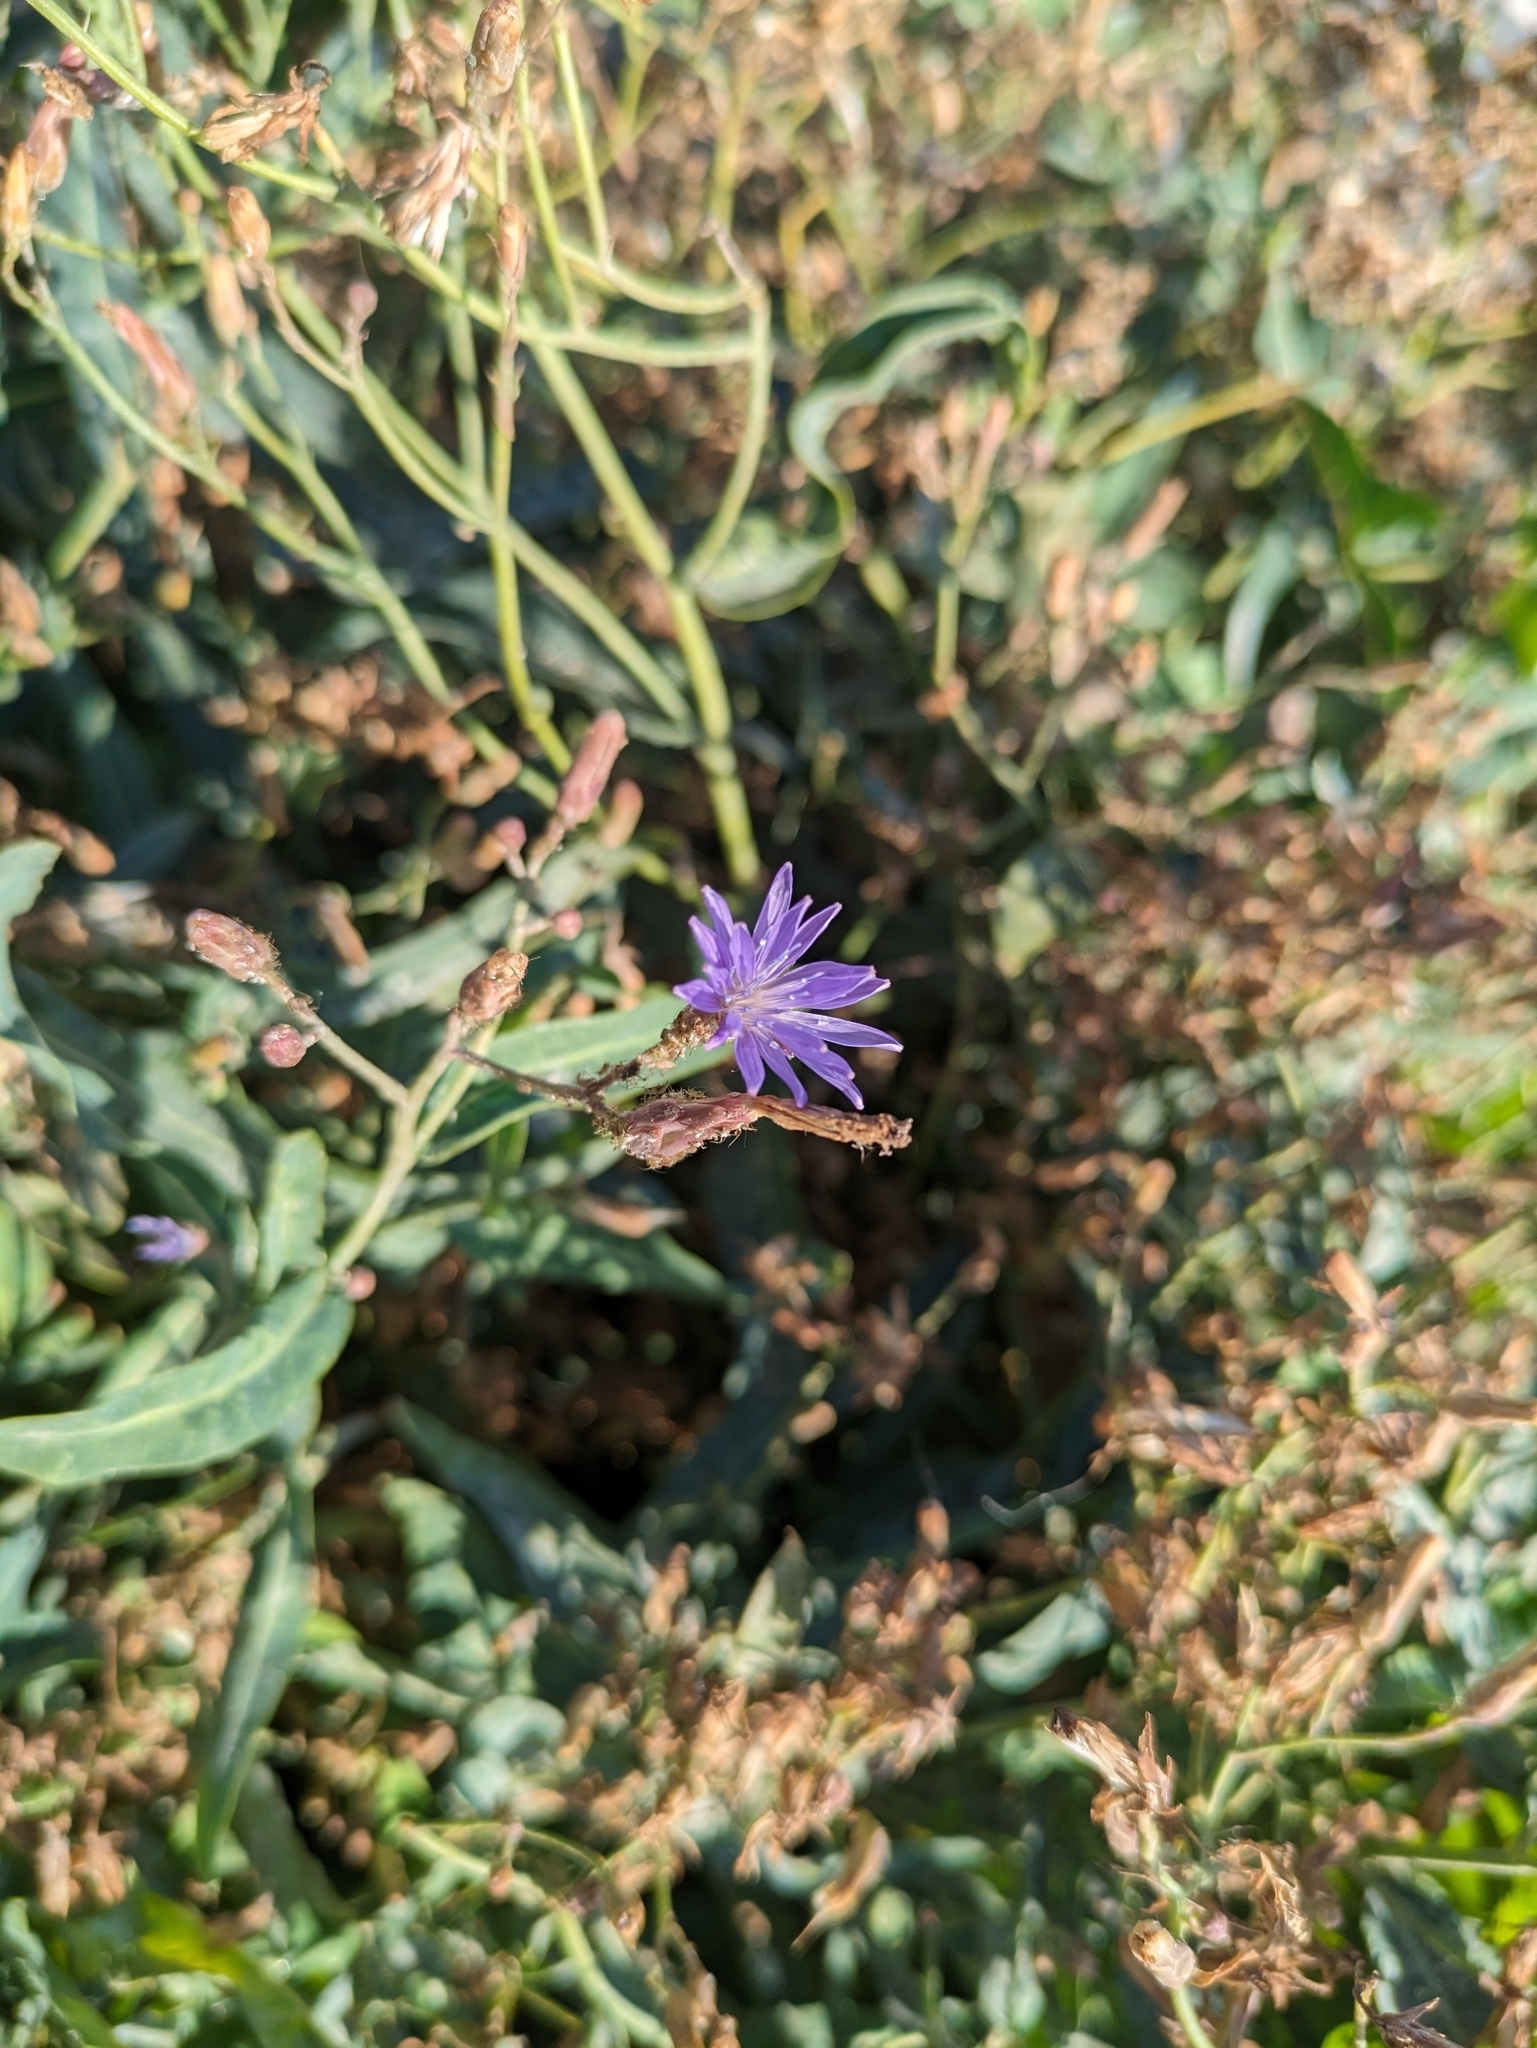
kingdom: Plantae
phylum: Tracheophyta
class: Magnoliopsida
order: Asterales
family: Asteraceae
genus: Lactuca
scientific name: Lactuca tatarica
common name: Blue lettuce
